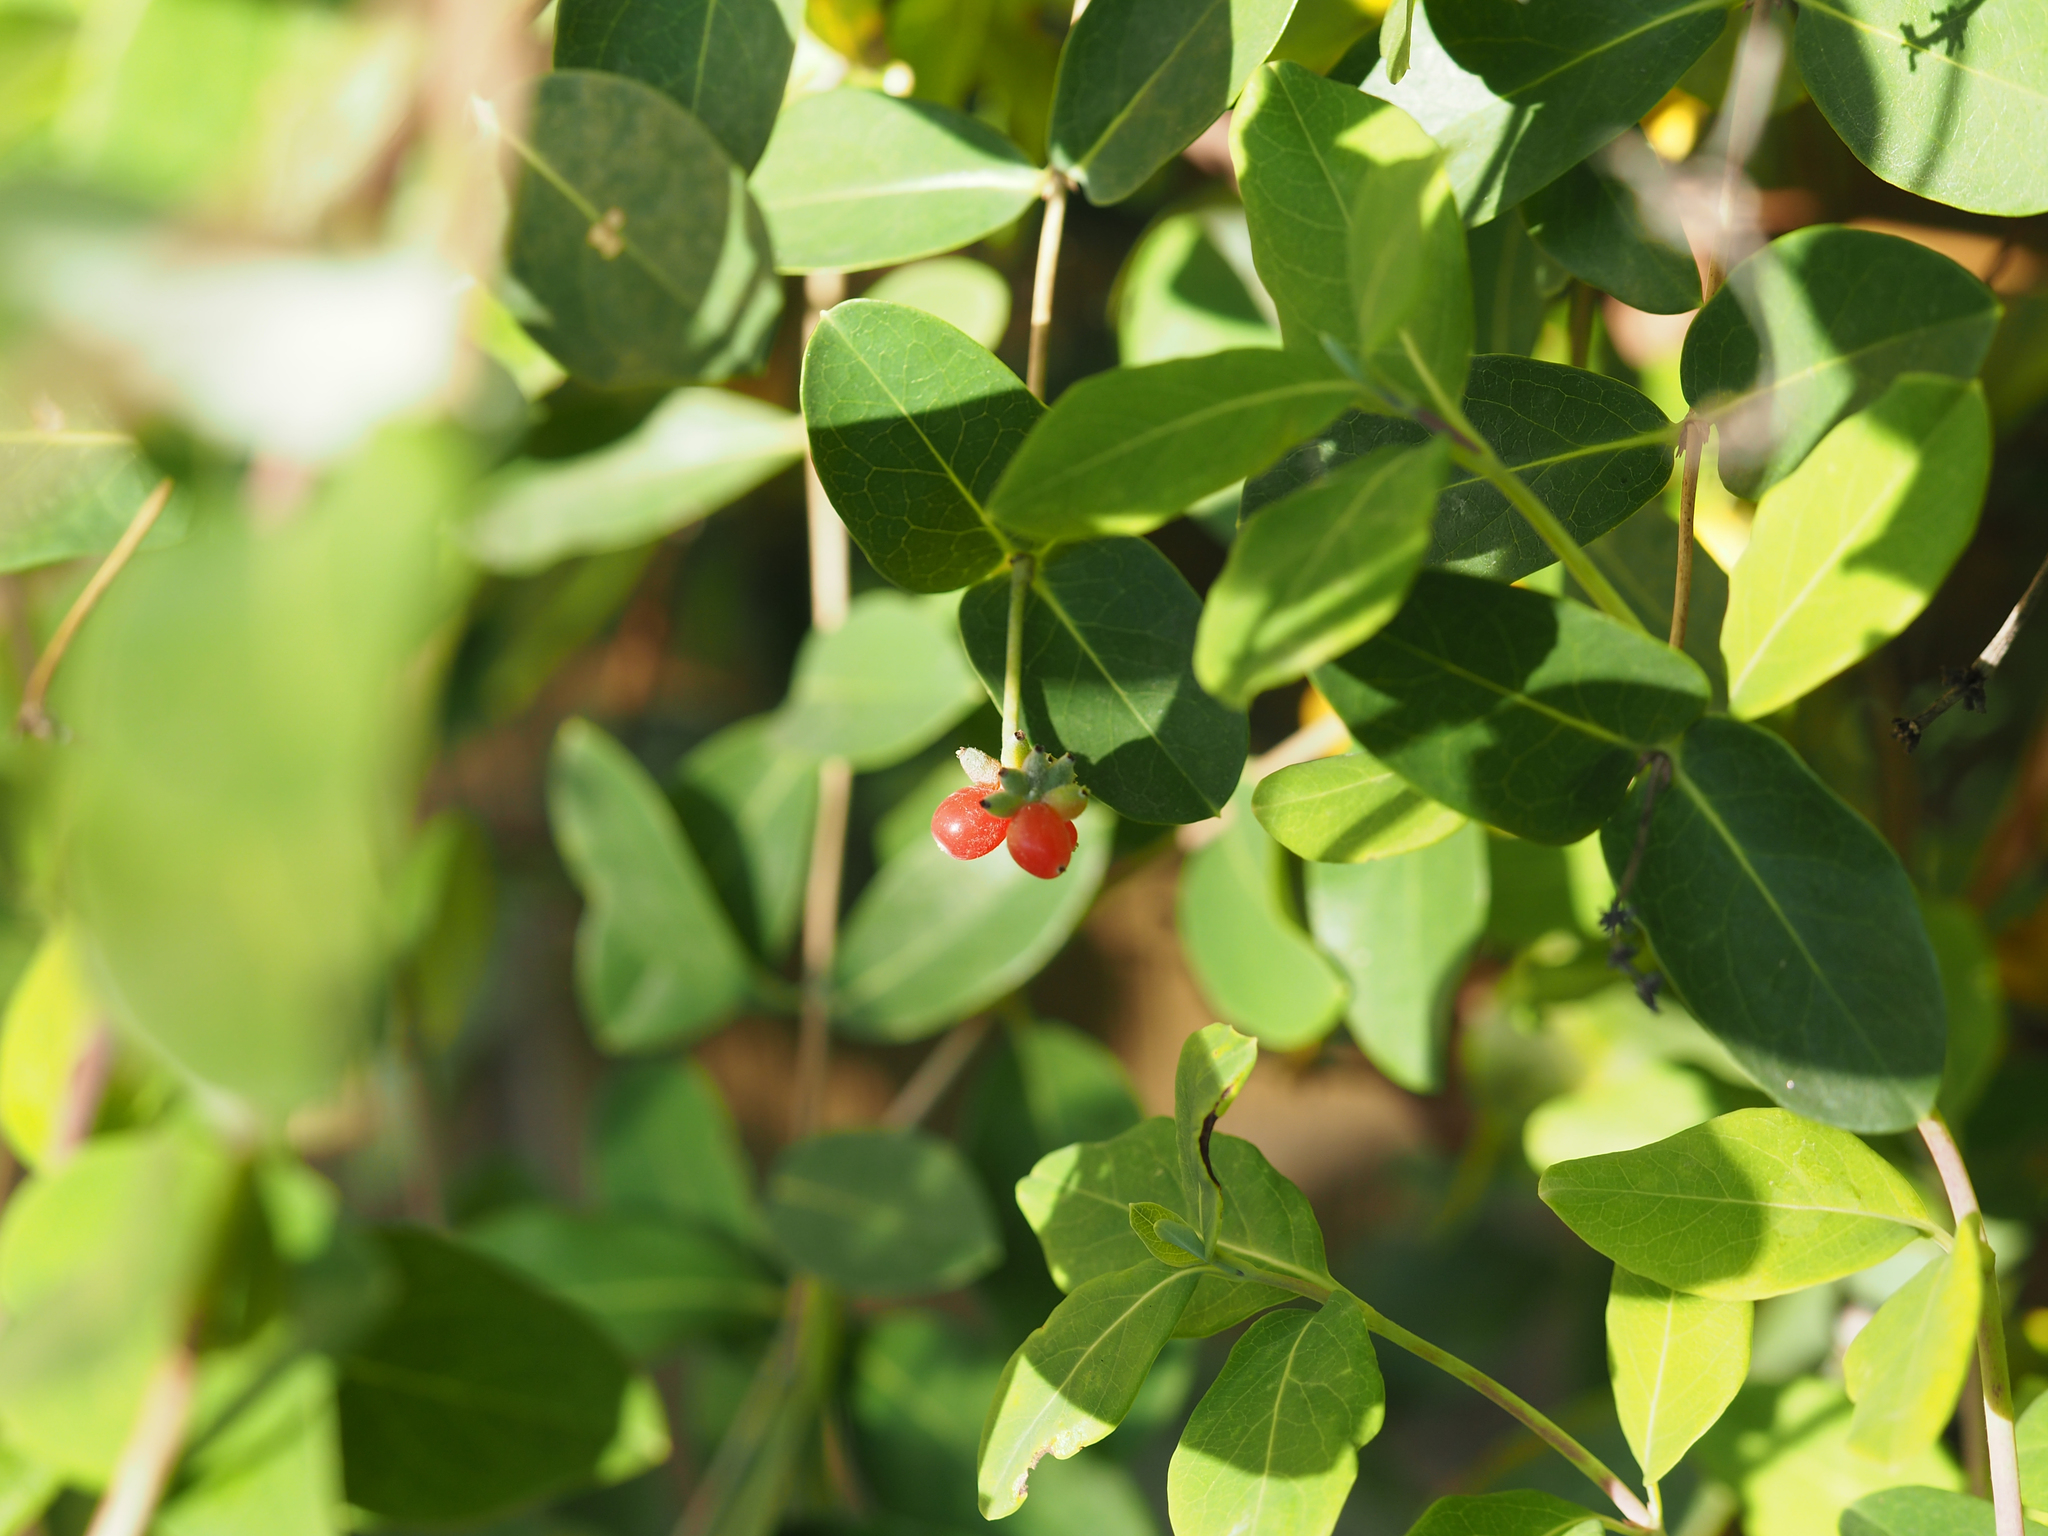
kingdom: Plantae
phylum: Tracheophyta
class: Magnoliopsida
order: Dipsacales
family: Caprifoliaceae
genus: Lonicera
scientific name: Lonicera sempervirens
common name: Coral honeysuckle
